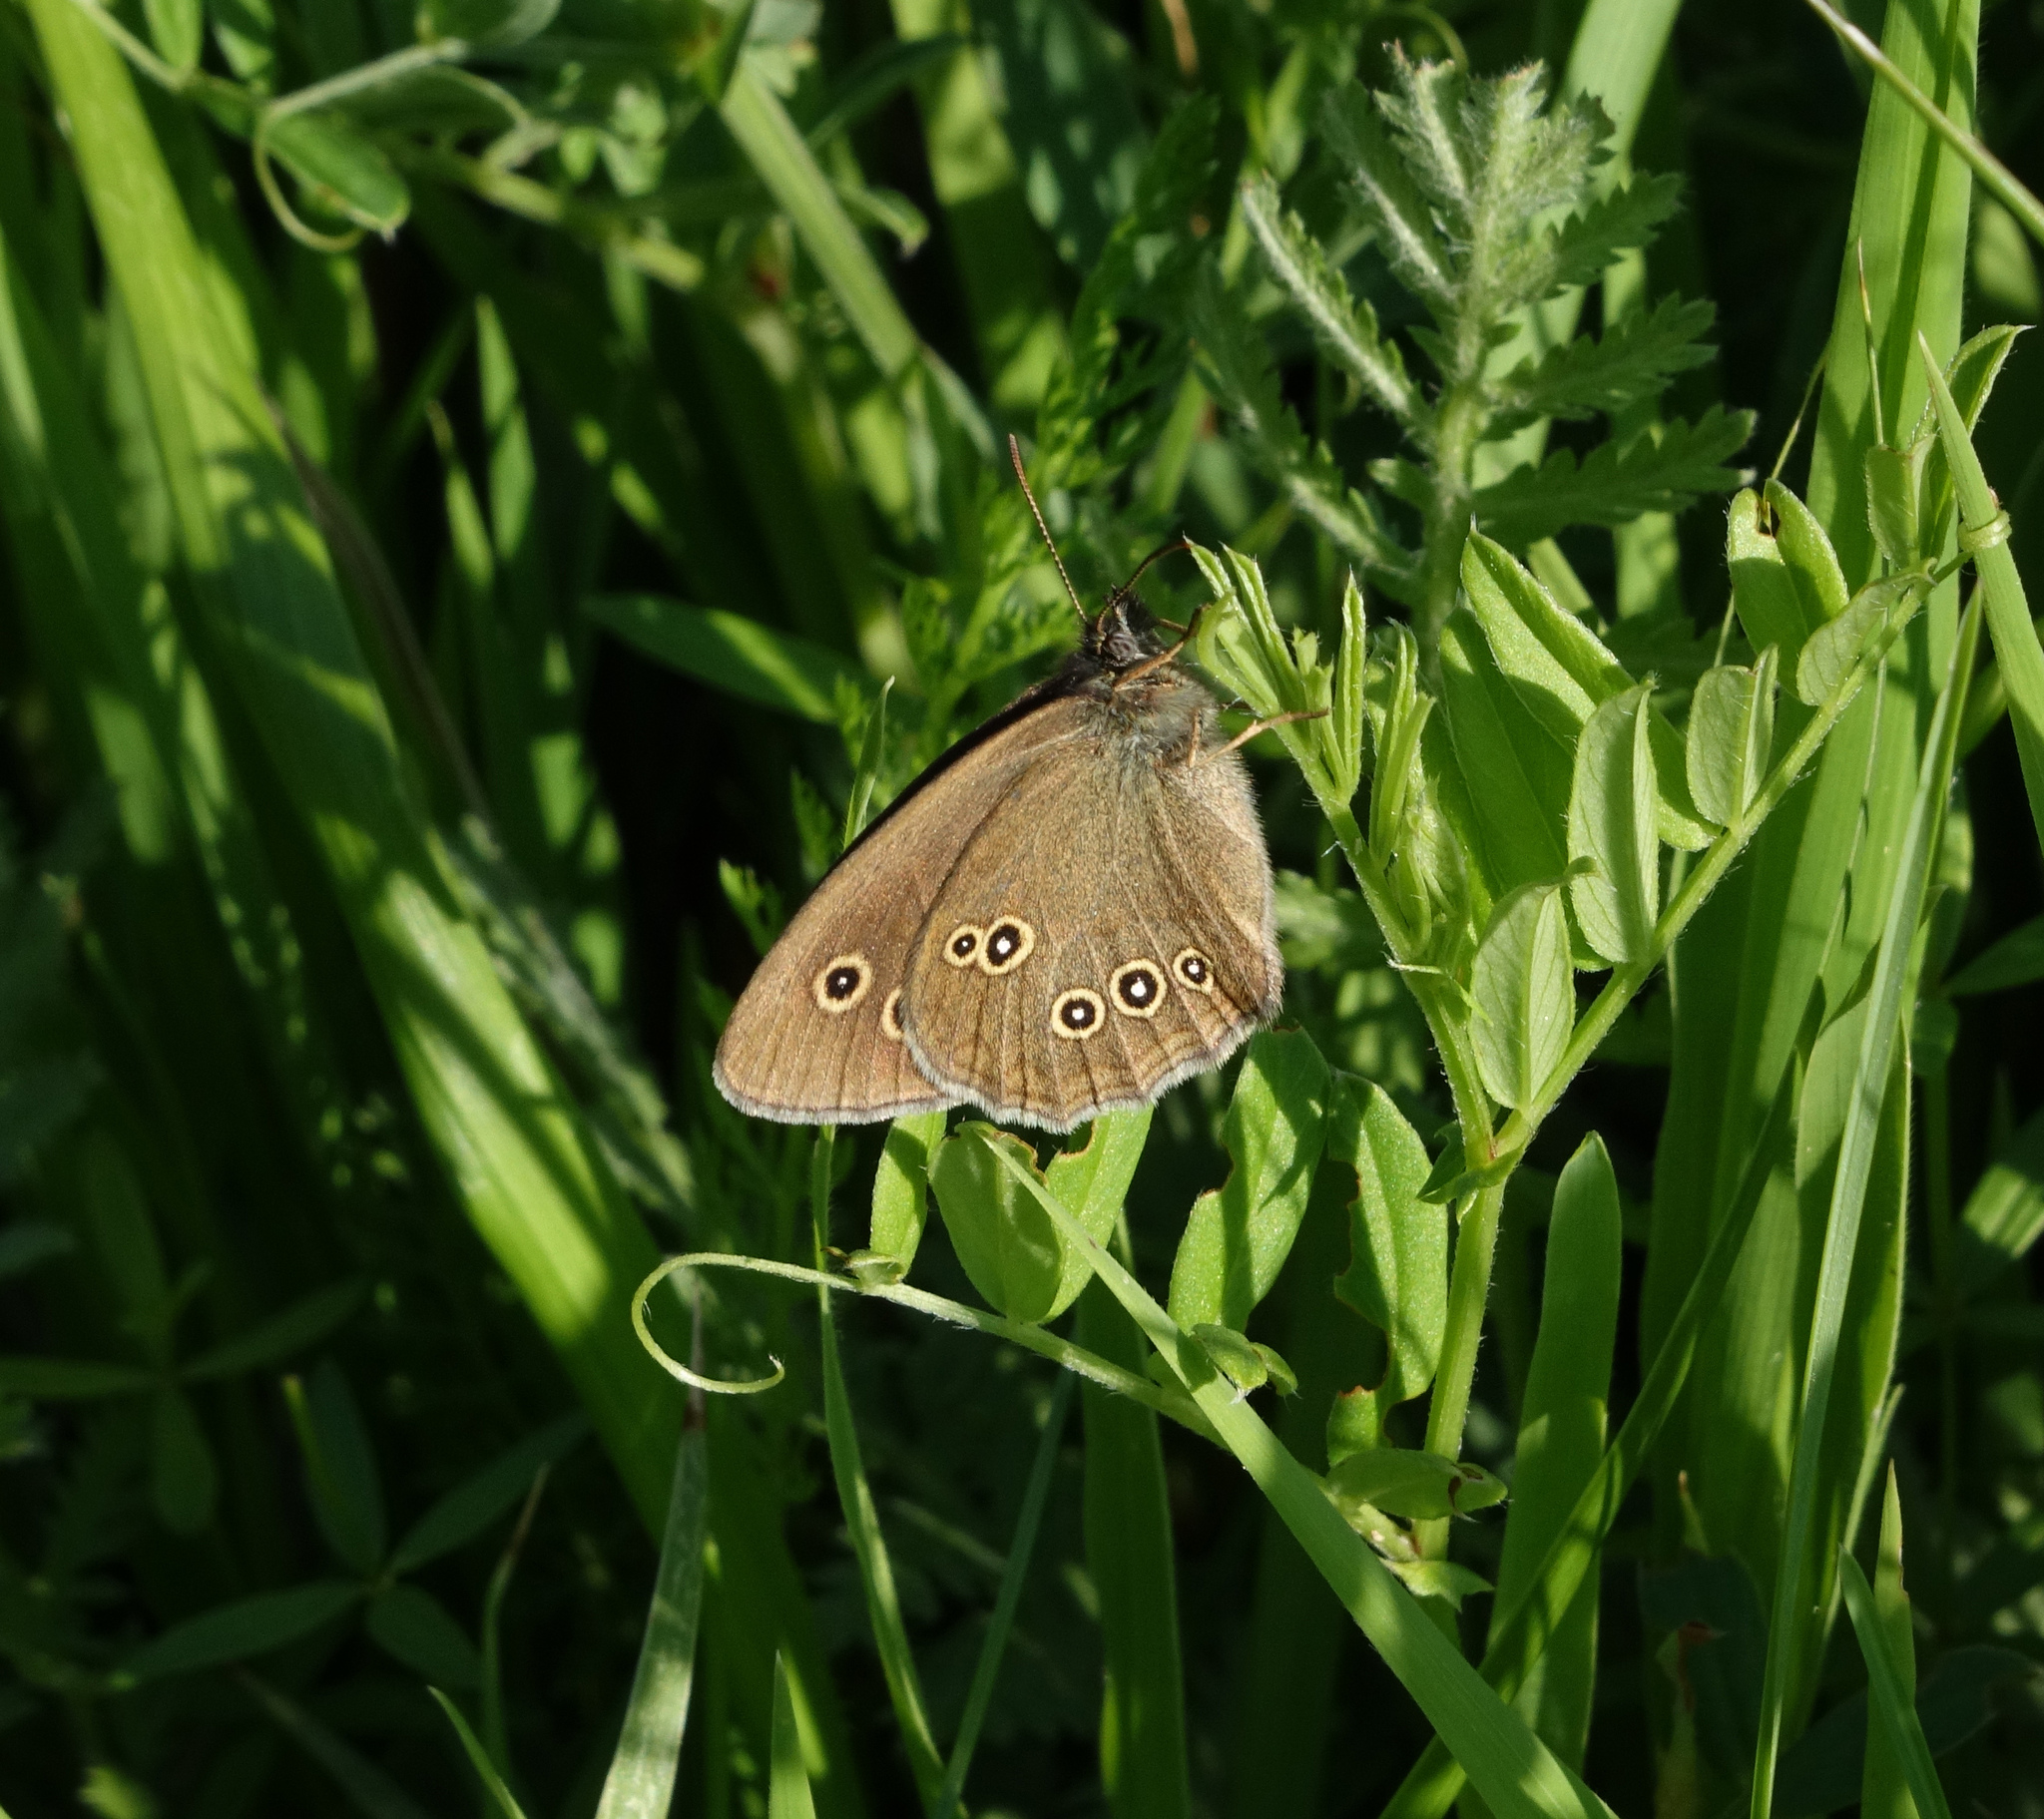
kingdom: Animalia
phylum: Arthropoda
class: Insecta
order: Lepidoptera
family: Nymphalidae
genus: Aphantopus
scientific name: Aphantopus hyperantus
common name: Ringlet
